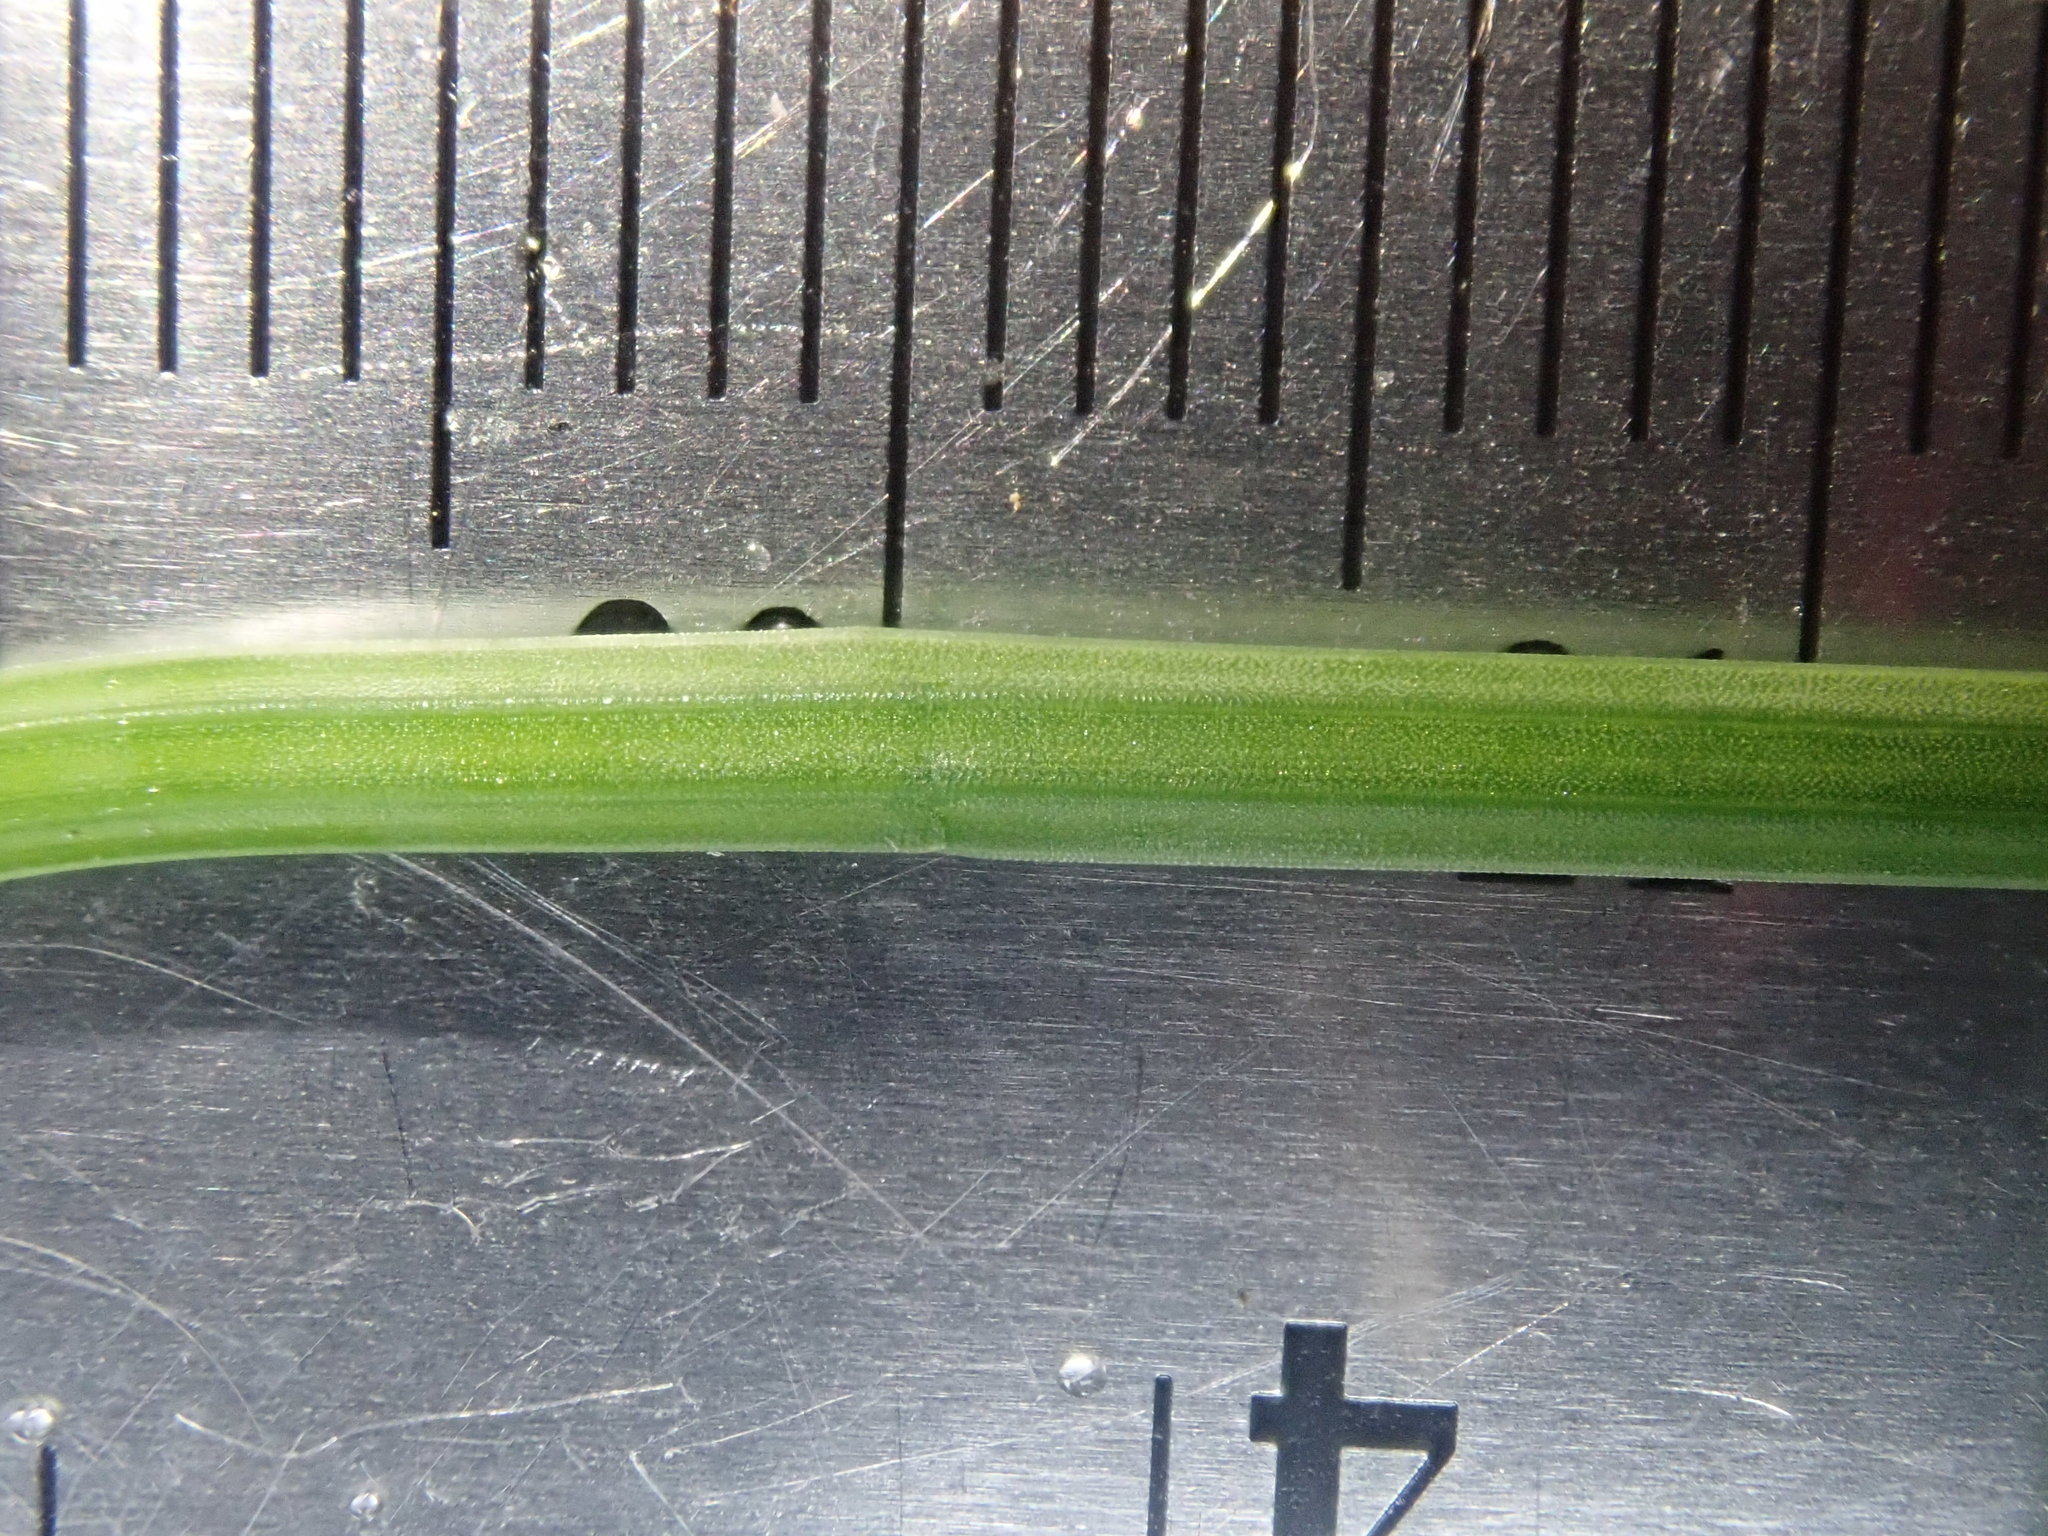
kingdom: Plantae
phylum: Tracheophyta
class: Polypodiopsida
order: Equisetales
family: Equisetaceae
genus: Equisetum
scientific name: Equisetum palustre
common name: Marsh horsetail
